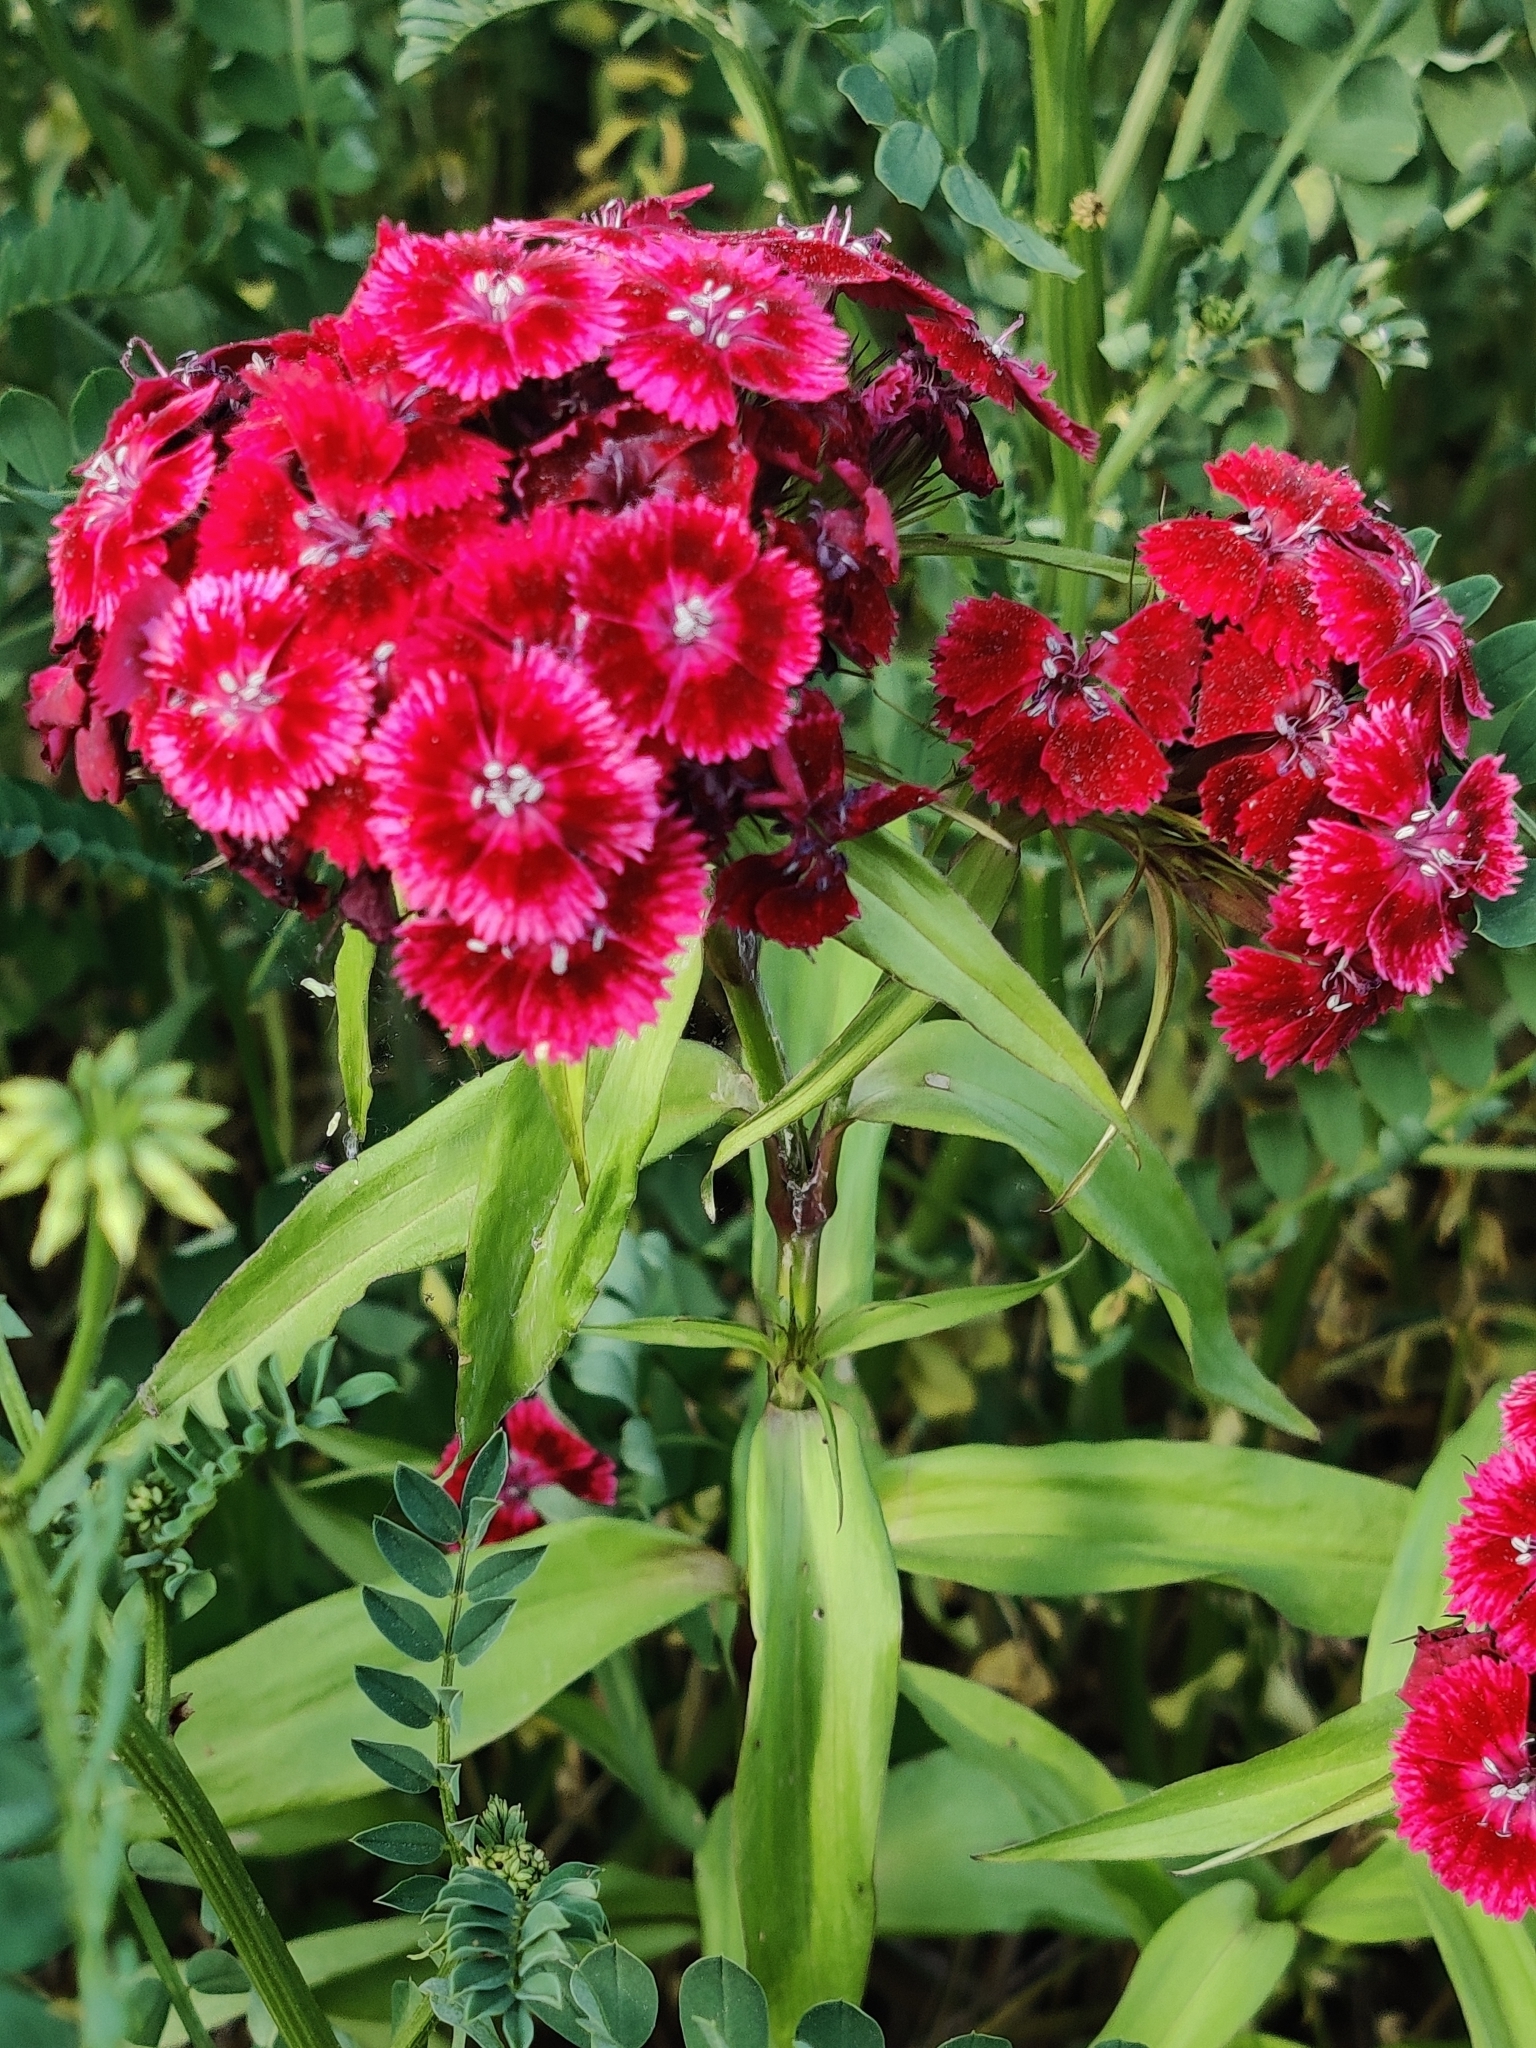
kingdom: Plantae
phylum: Tracheophyta
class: Magnoliopsida
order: Caryophyllales
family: Caryophyllaceae
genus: Dianthus
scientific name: Dianthus barbatus
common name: Sweet-william
